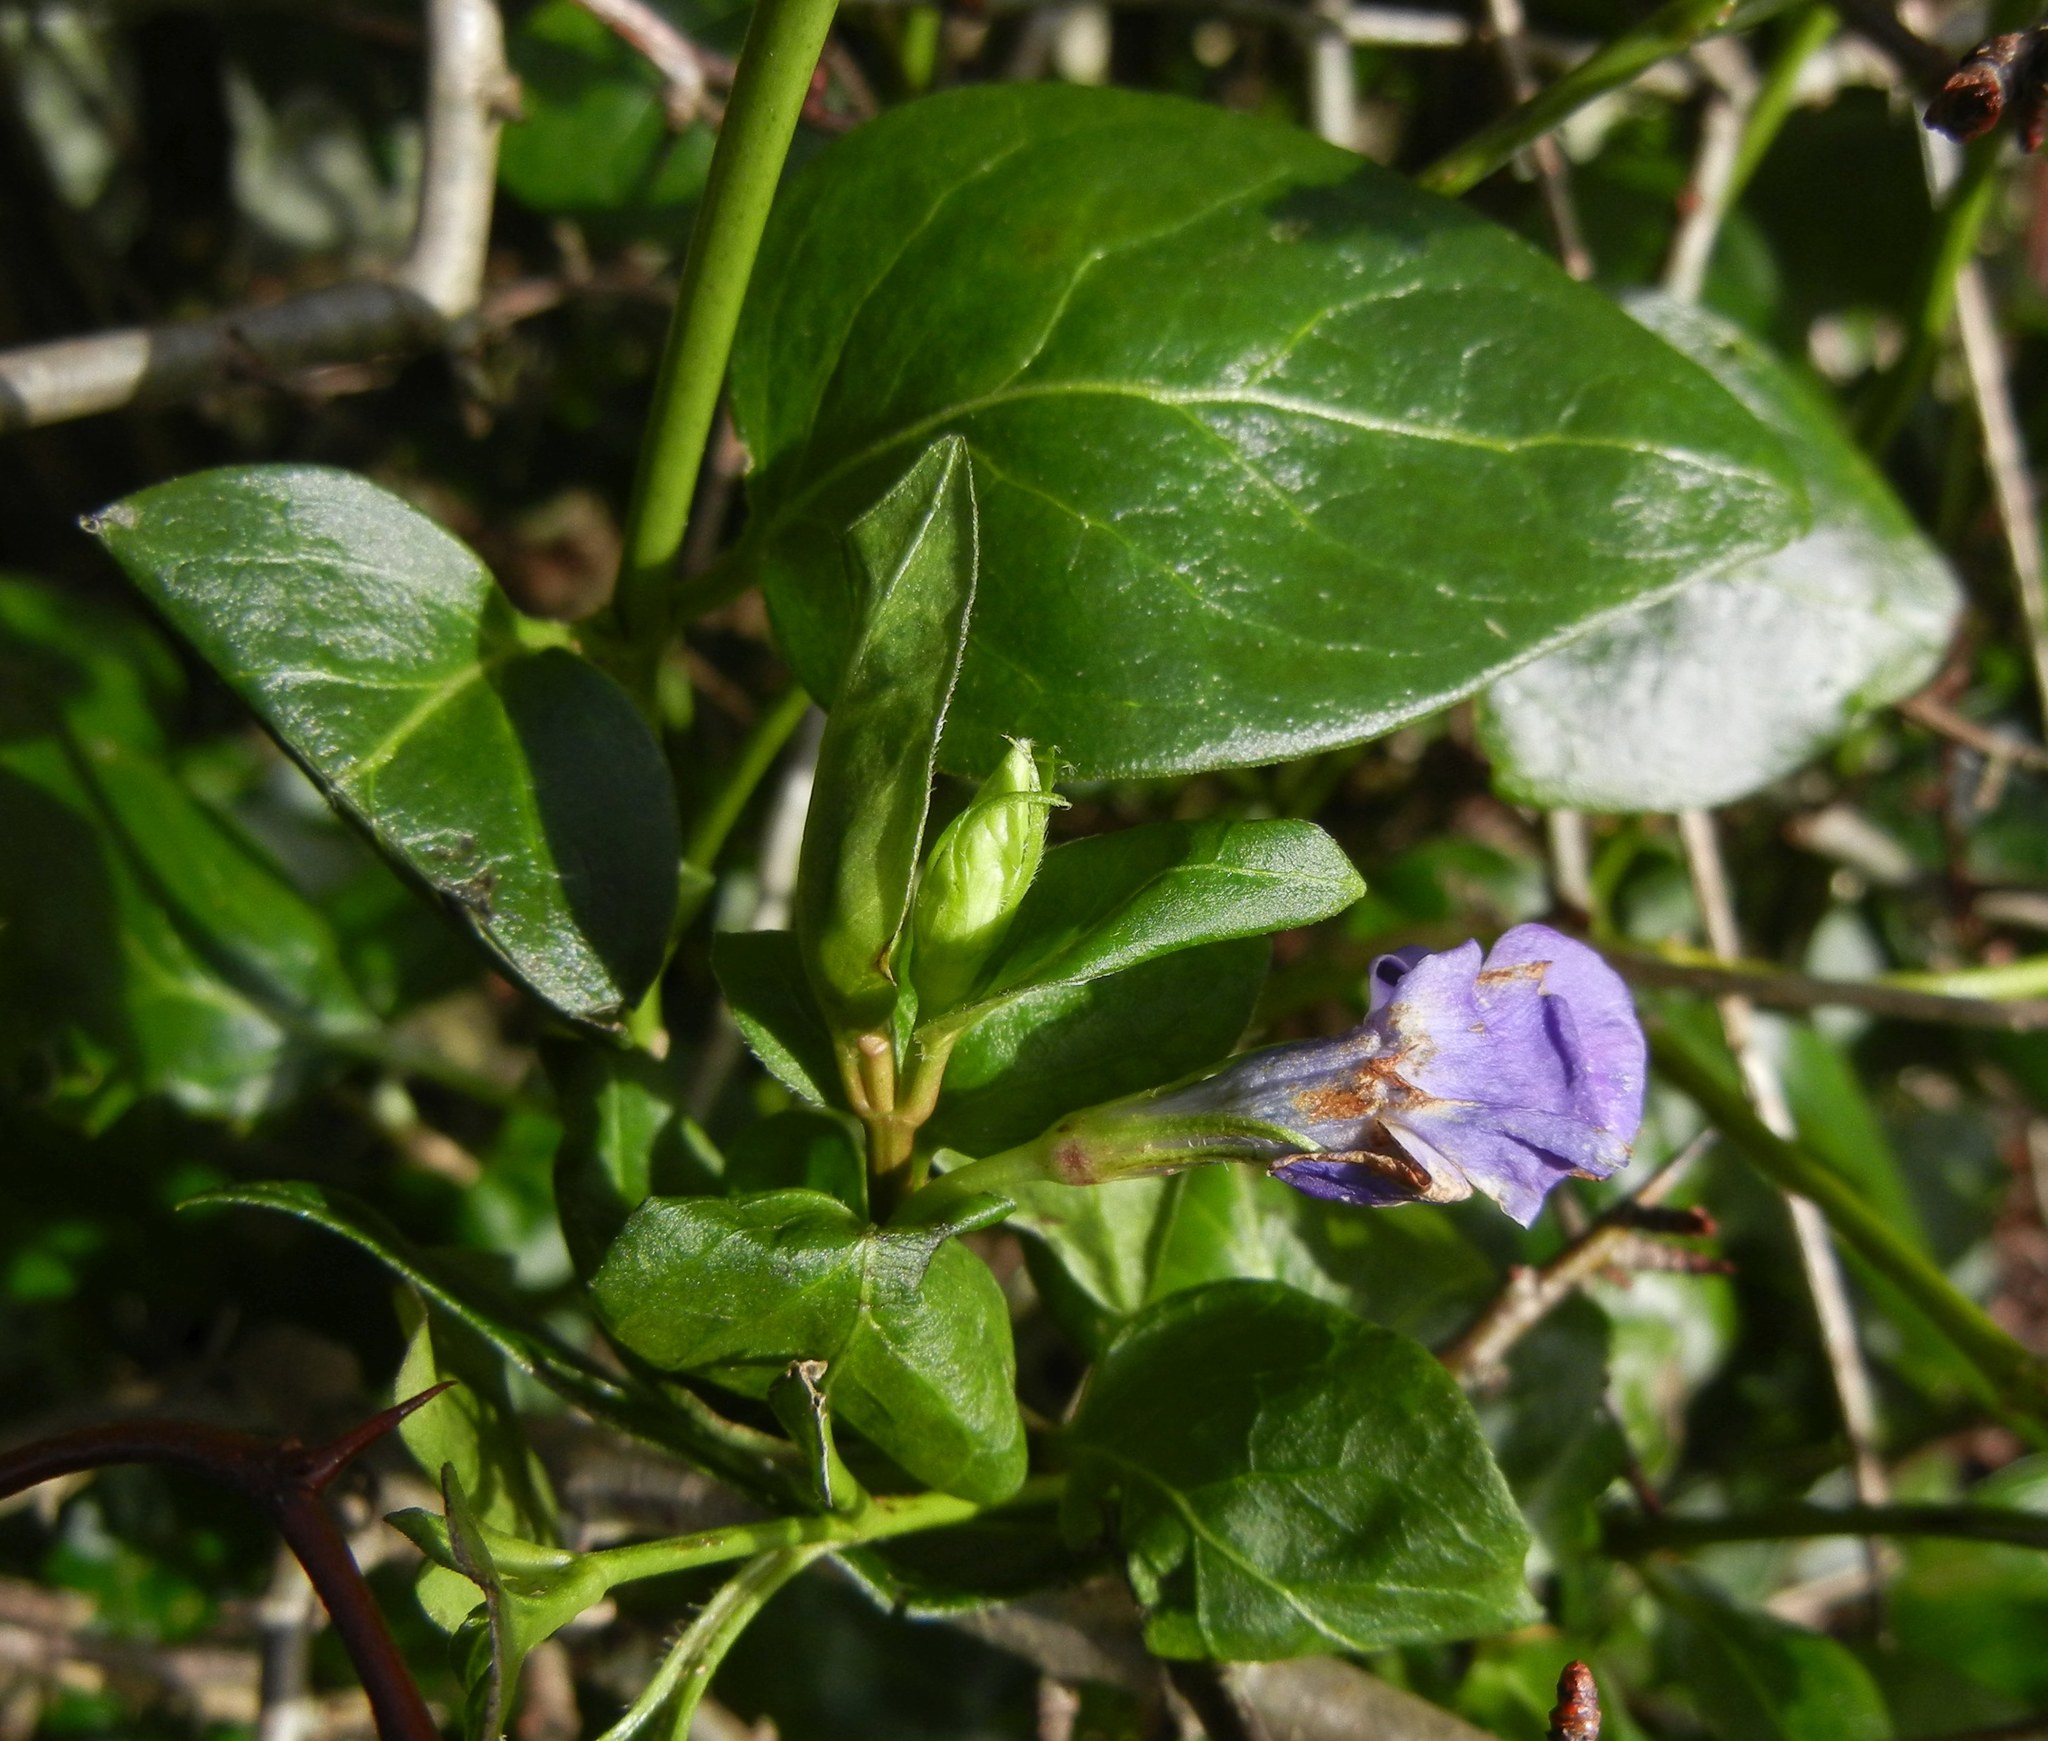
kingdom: Plantae
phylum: Tracheophyta
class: Magnoliopsida
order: Gentianales
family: Apocynaceae
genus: Vinca
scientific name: Vinca major
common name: Greater periwinkle
